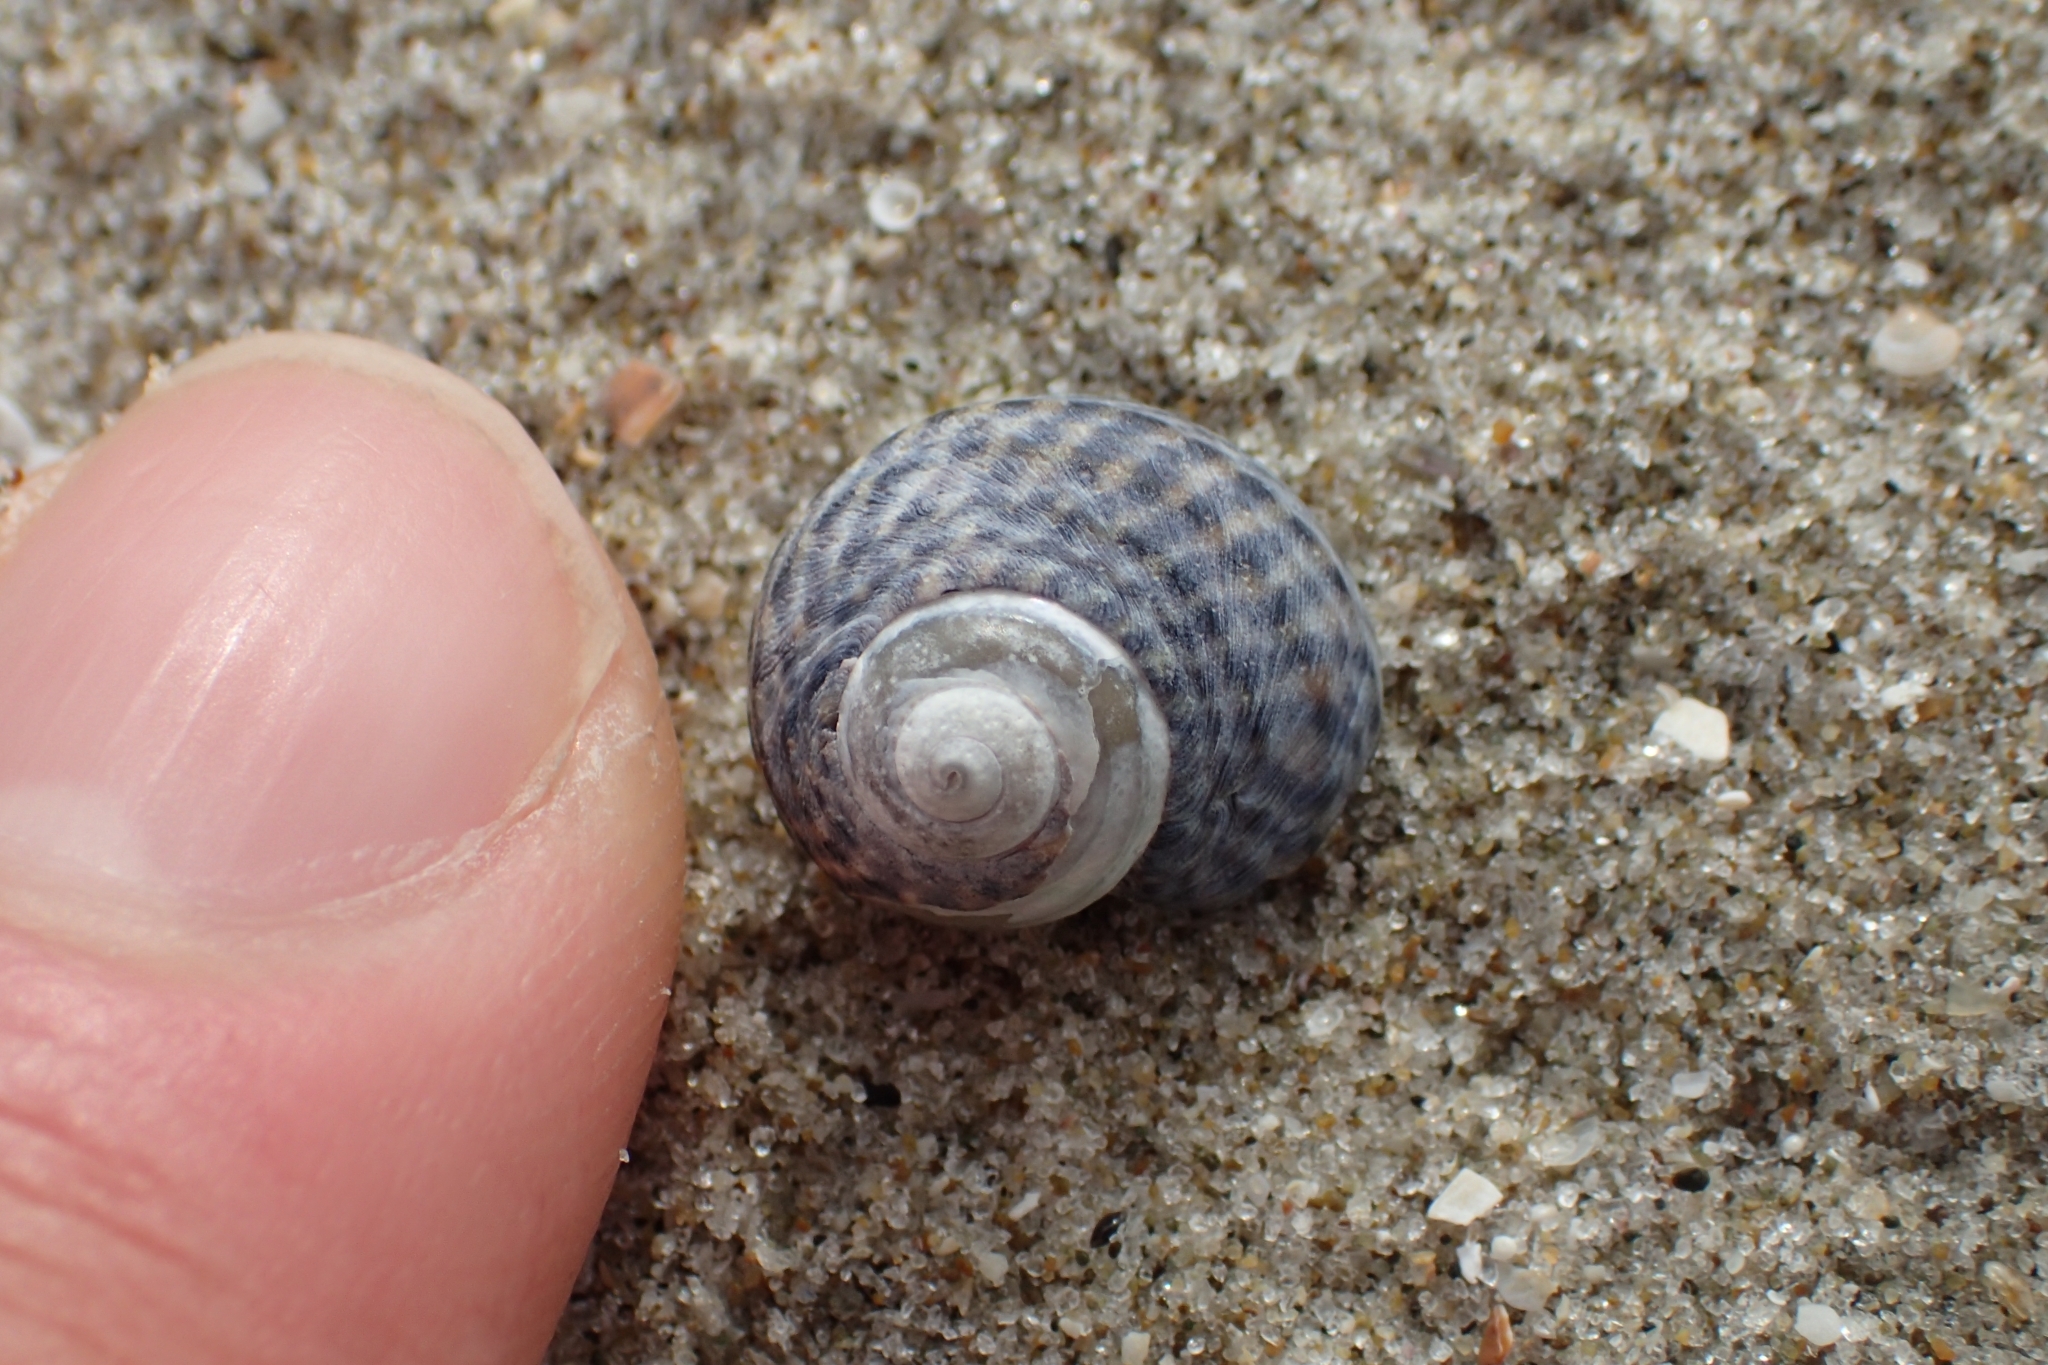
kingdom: Animalia
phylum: Mollusca
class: Gastropoda
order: Trochida
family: Trochidae
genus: Diloma
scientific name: Diloma subrostratum
